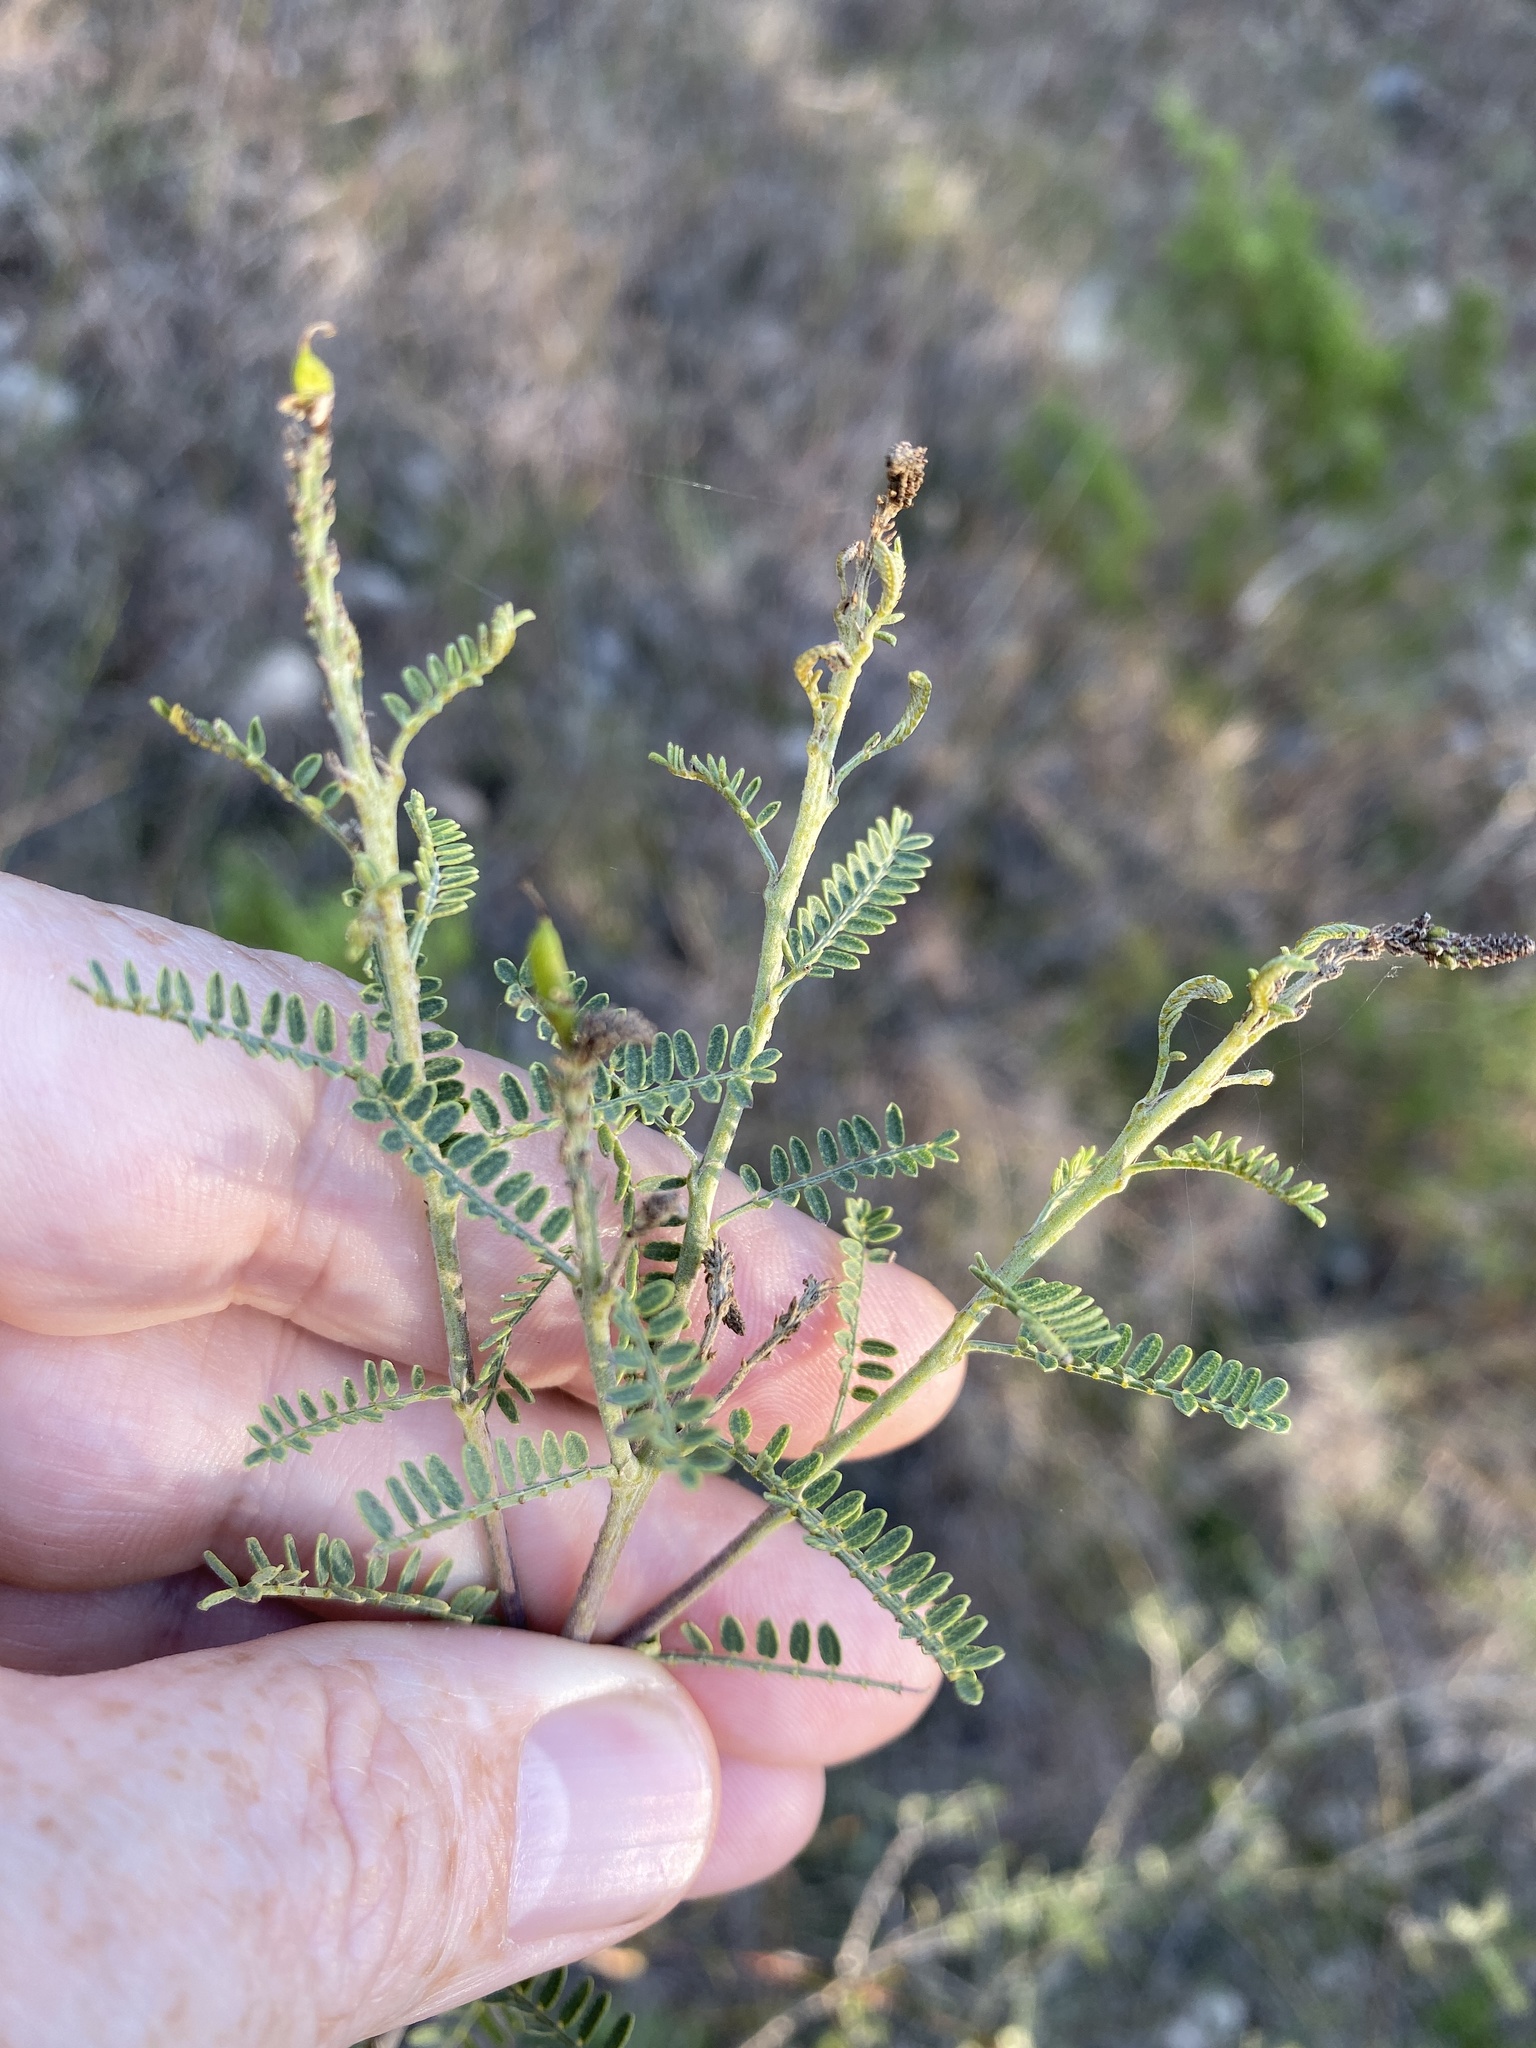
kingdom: Plantae
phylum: Tracheophyta
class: Magnoliopsida
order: Fabales
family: Fabaceae
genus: Eysenhardtia
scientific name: Eysenhardtia texana
